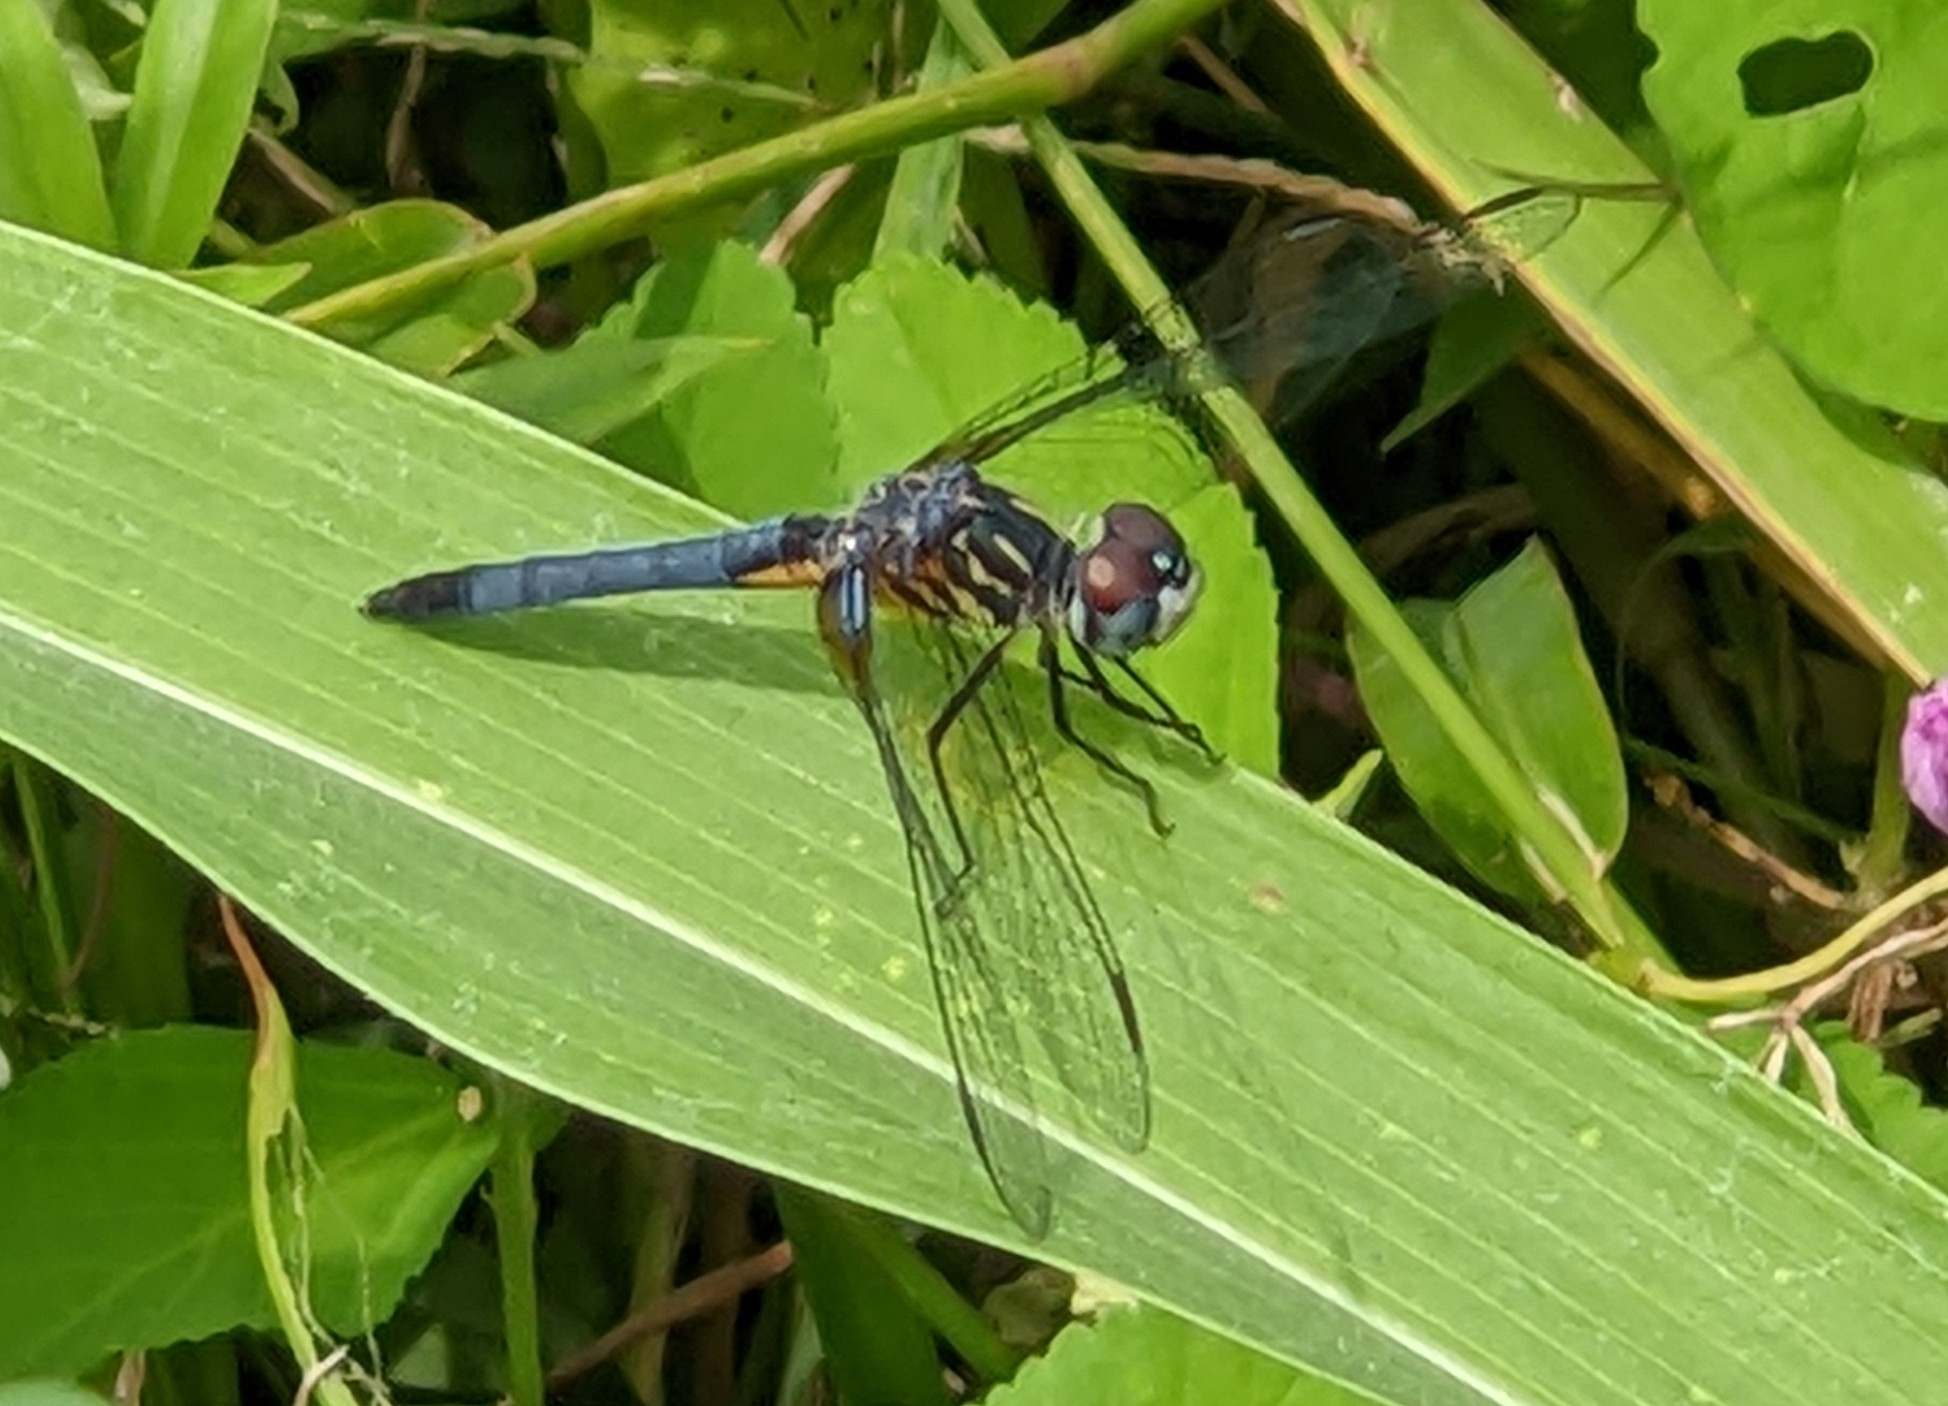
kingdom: Animalia
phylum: Arthropoda
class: Insecta
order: Odonata
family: Libellulidae
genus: Pachydiplax
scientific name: Pachydiplax longipennis
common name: Blue dasher
